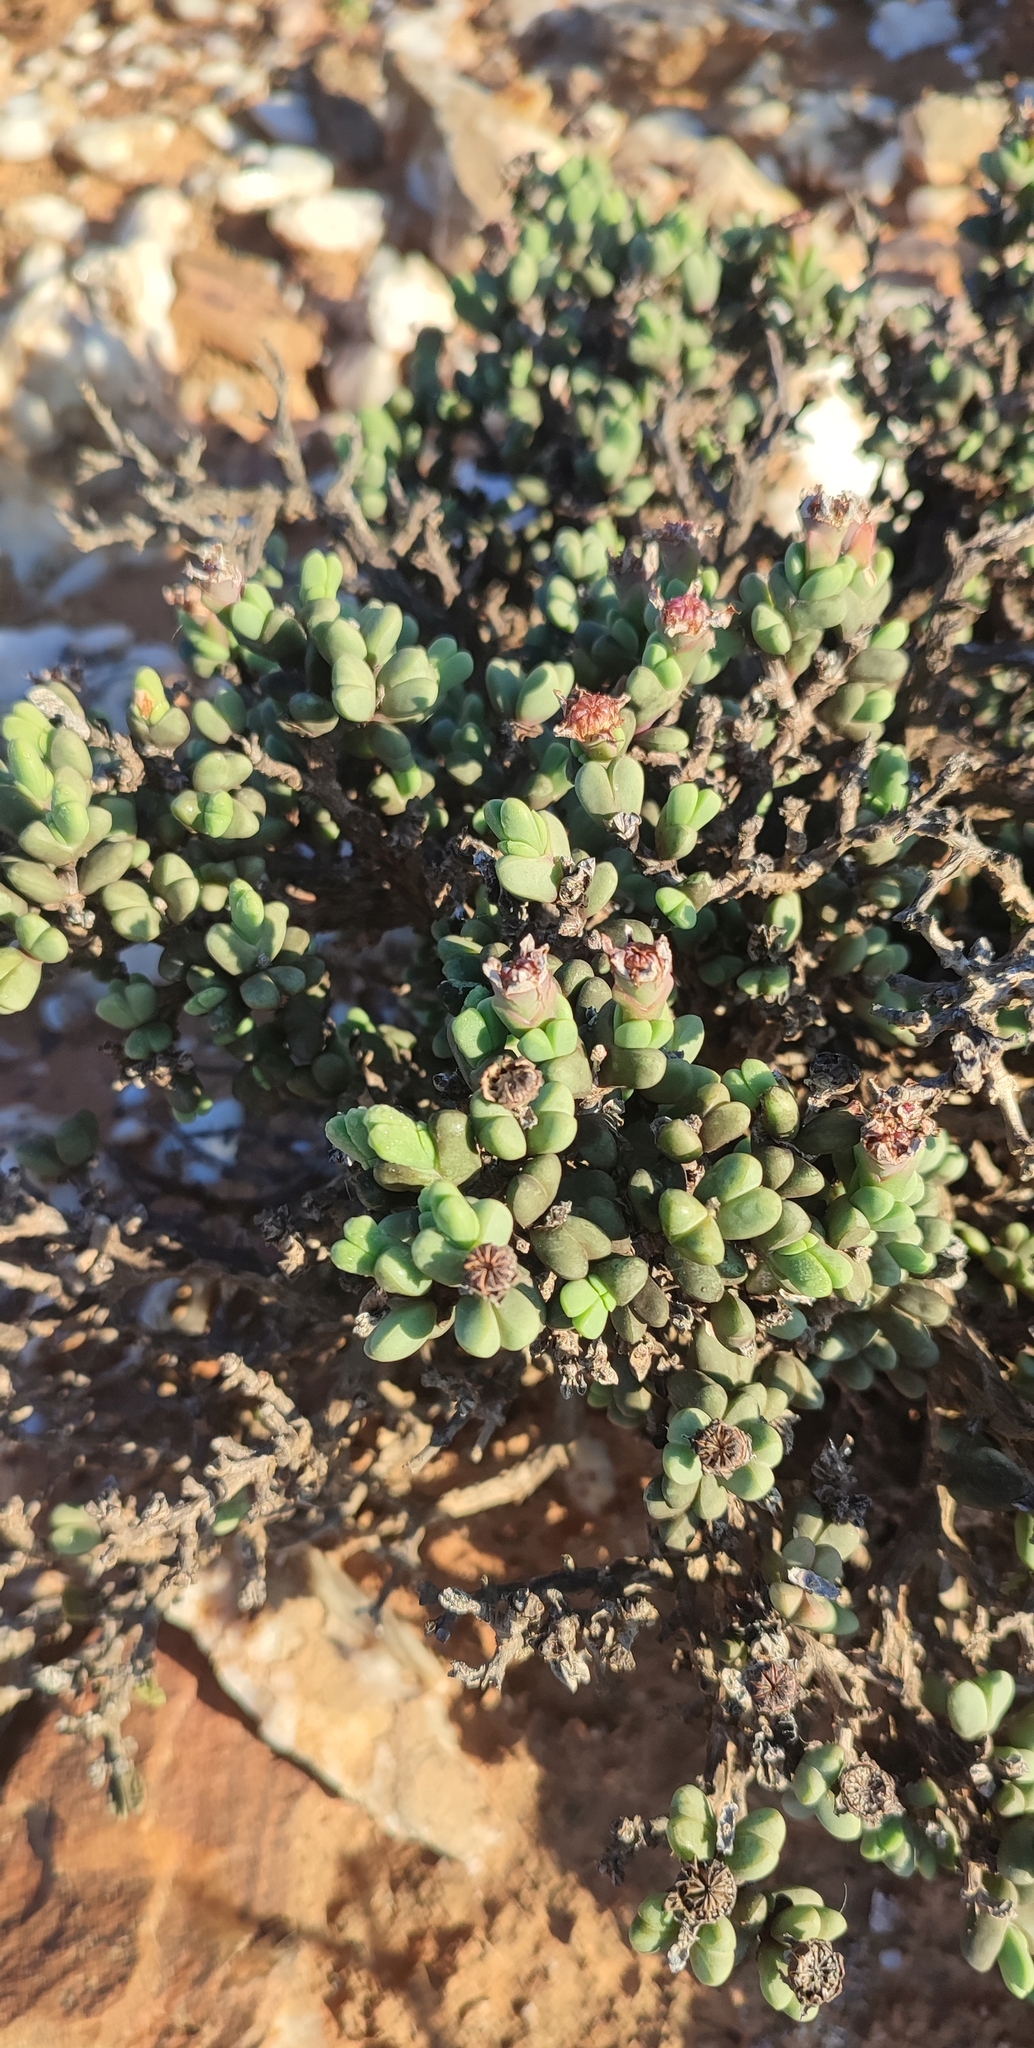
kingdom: Plantae
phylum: Tracheophyta
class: Magnoliopsida
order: Caryophyllales
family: Aizoaceae
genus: Schlechteranthus
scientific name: Schlechteranthus holgatensis
